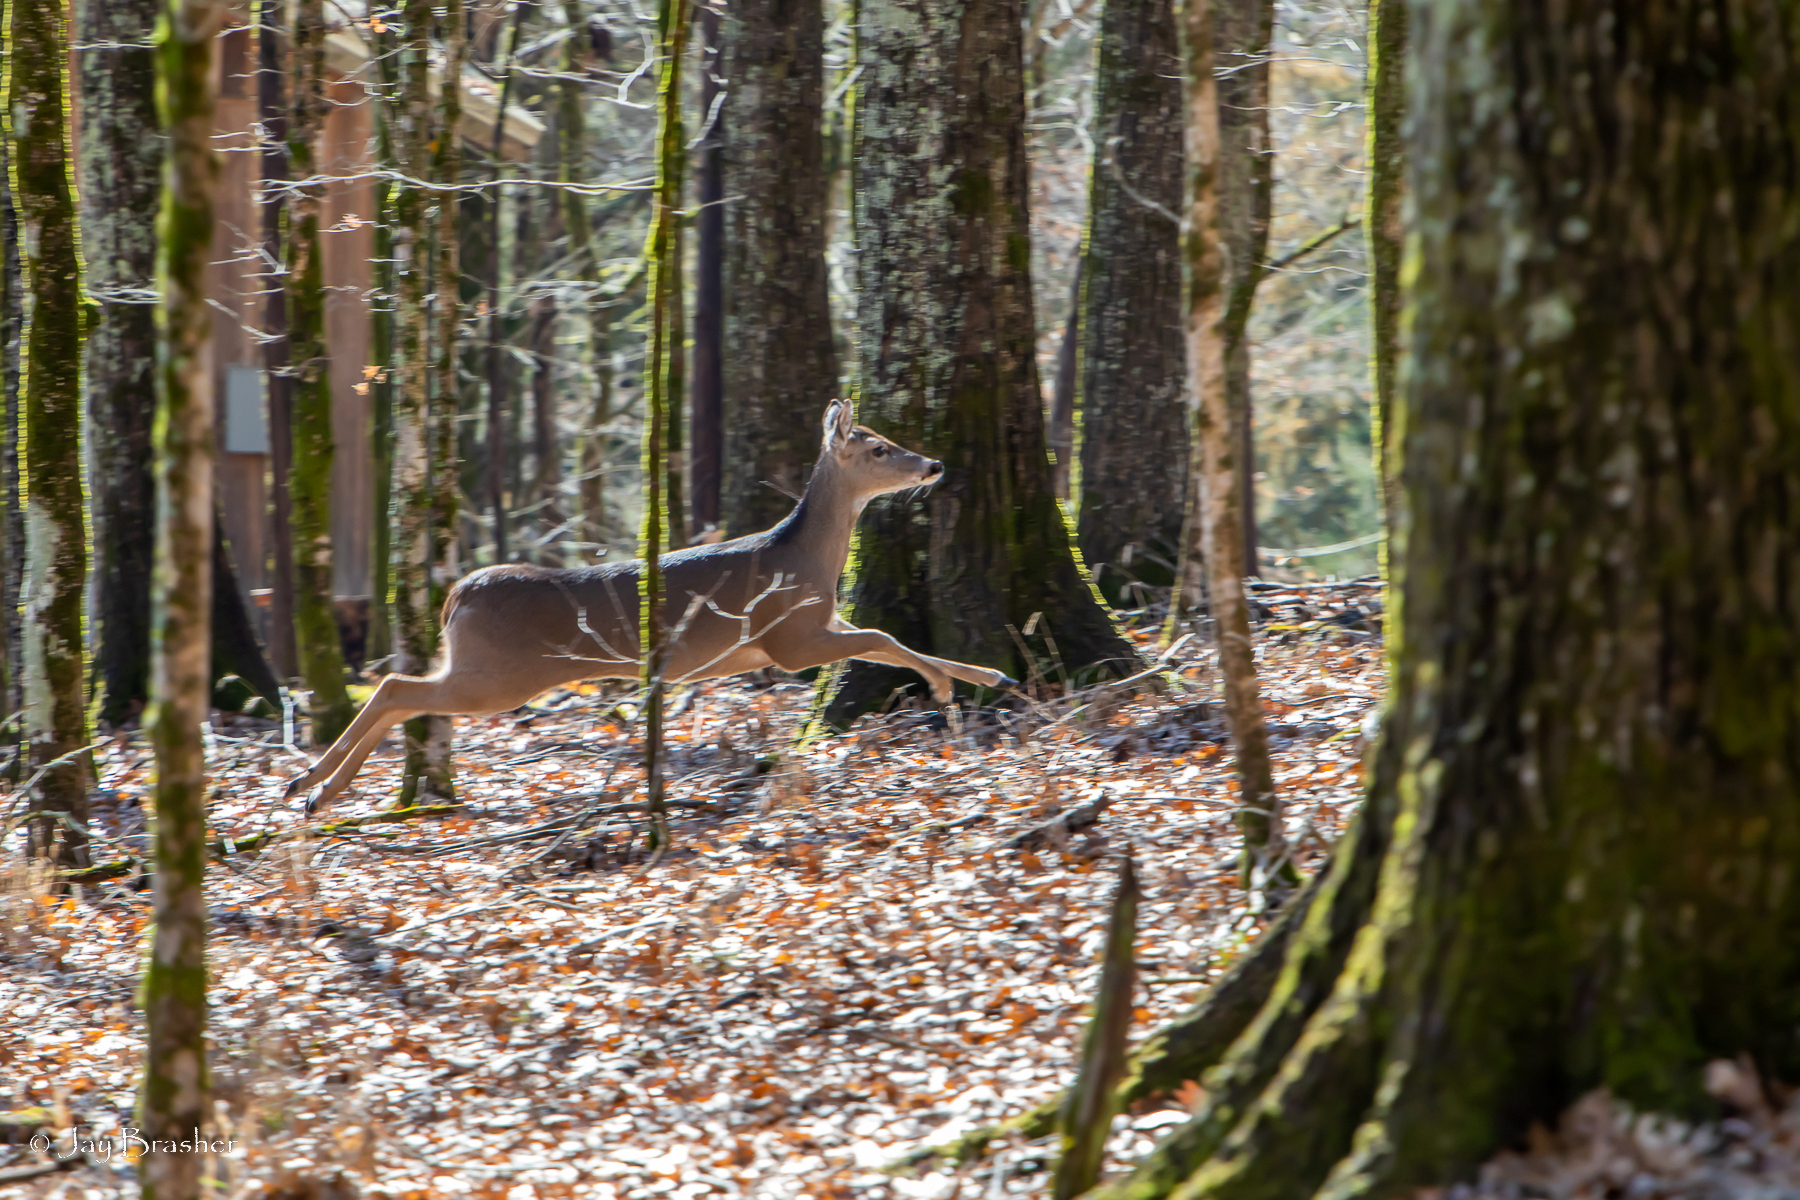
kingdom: Animalia
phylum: Chordata
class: Mammalia
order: Artiodactyla
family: Cervidae
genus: Odocoileus
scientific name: Odocoileus virginianus
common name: White-tailed deer
